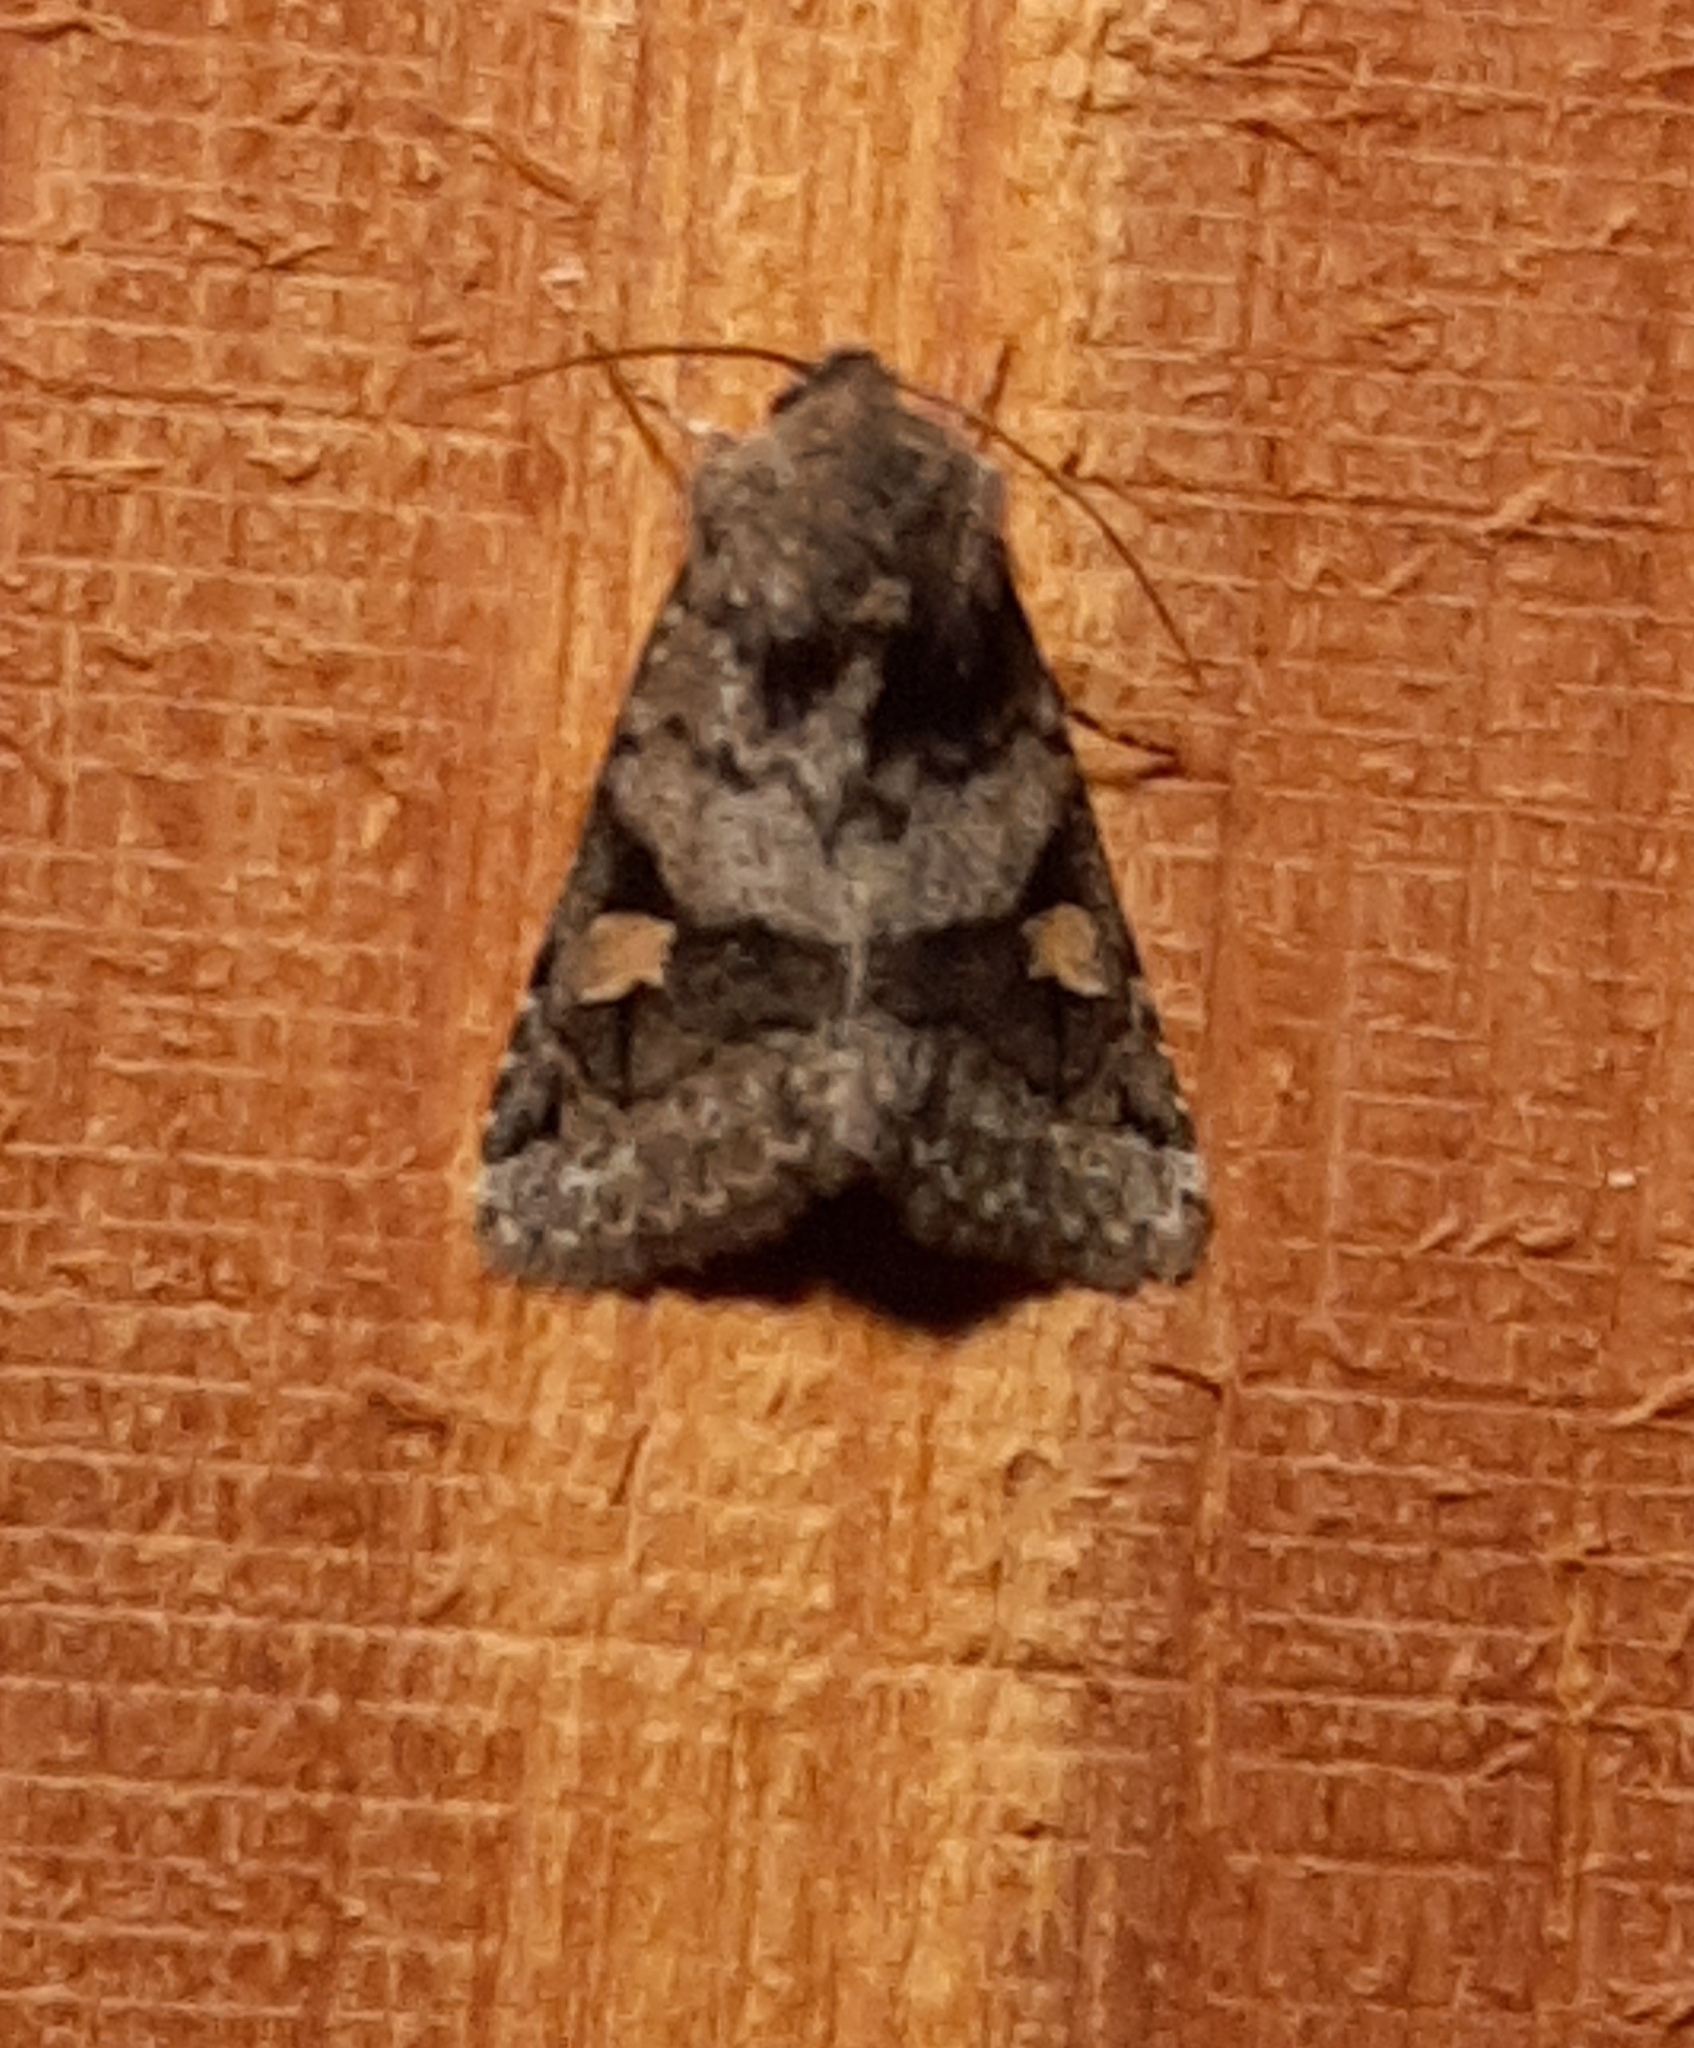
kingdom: Animalia
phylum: Arthropoda
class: Insecta
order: Lepidoptera
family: Noctuidae
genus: Ulolonche
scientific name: Ulolonche fasciata
